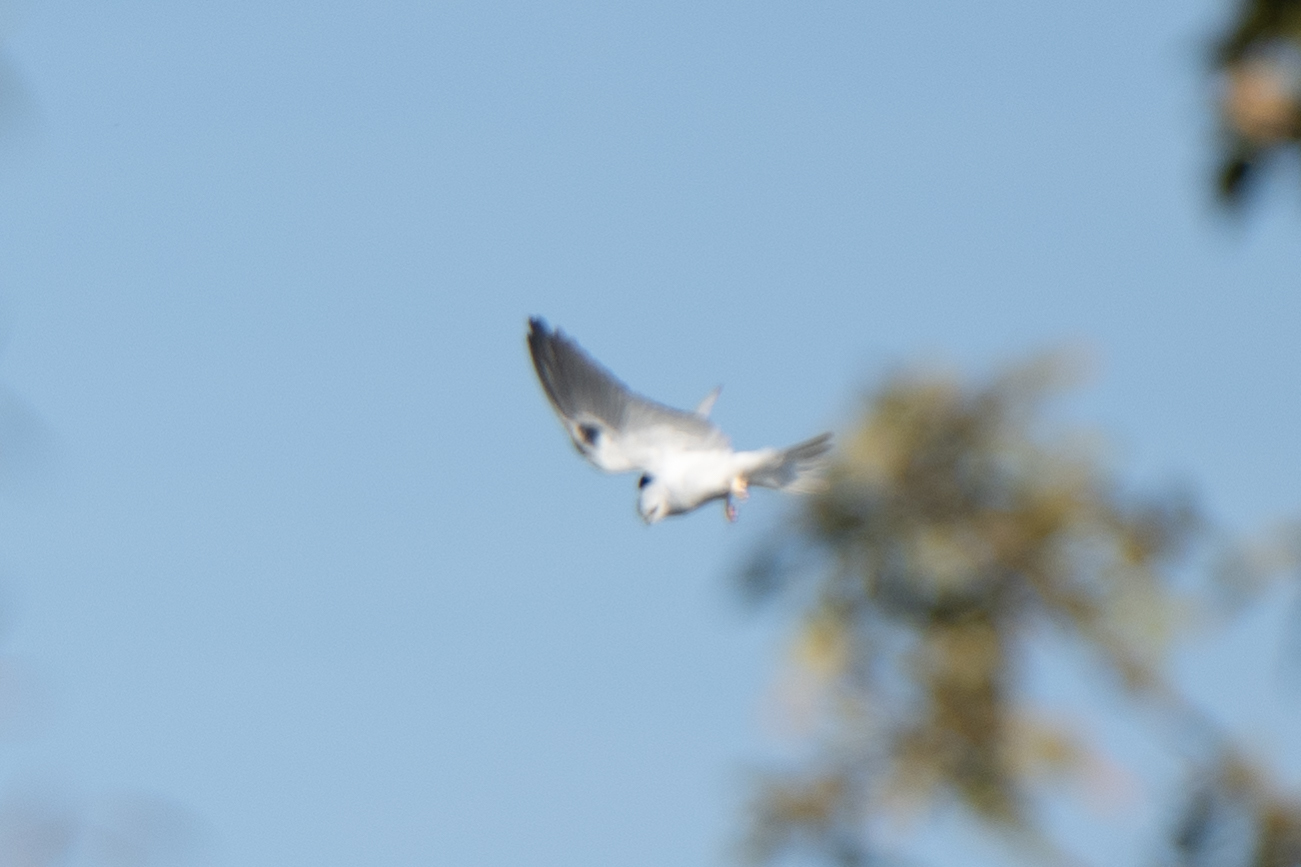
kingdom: Animalia
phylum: Chordata
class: Aves
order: Accipitriformes
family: Accipitridae
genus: Elanus
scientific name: Elanus leucurus
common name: White-tailed kite
